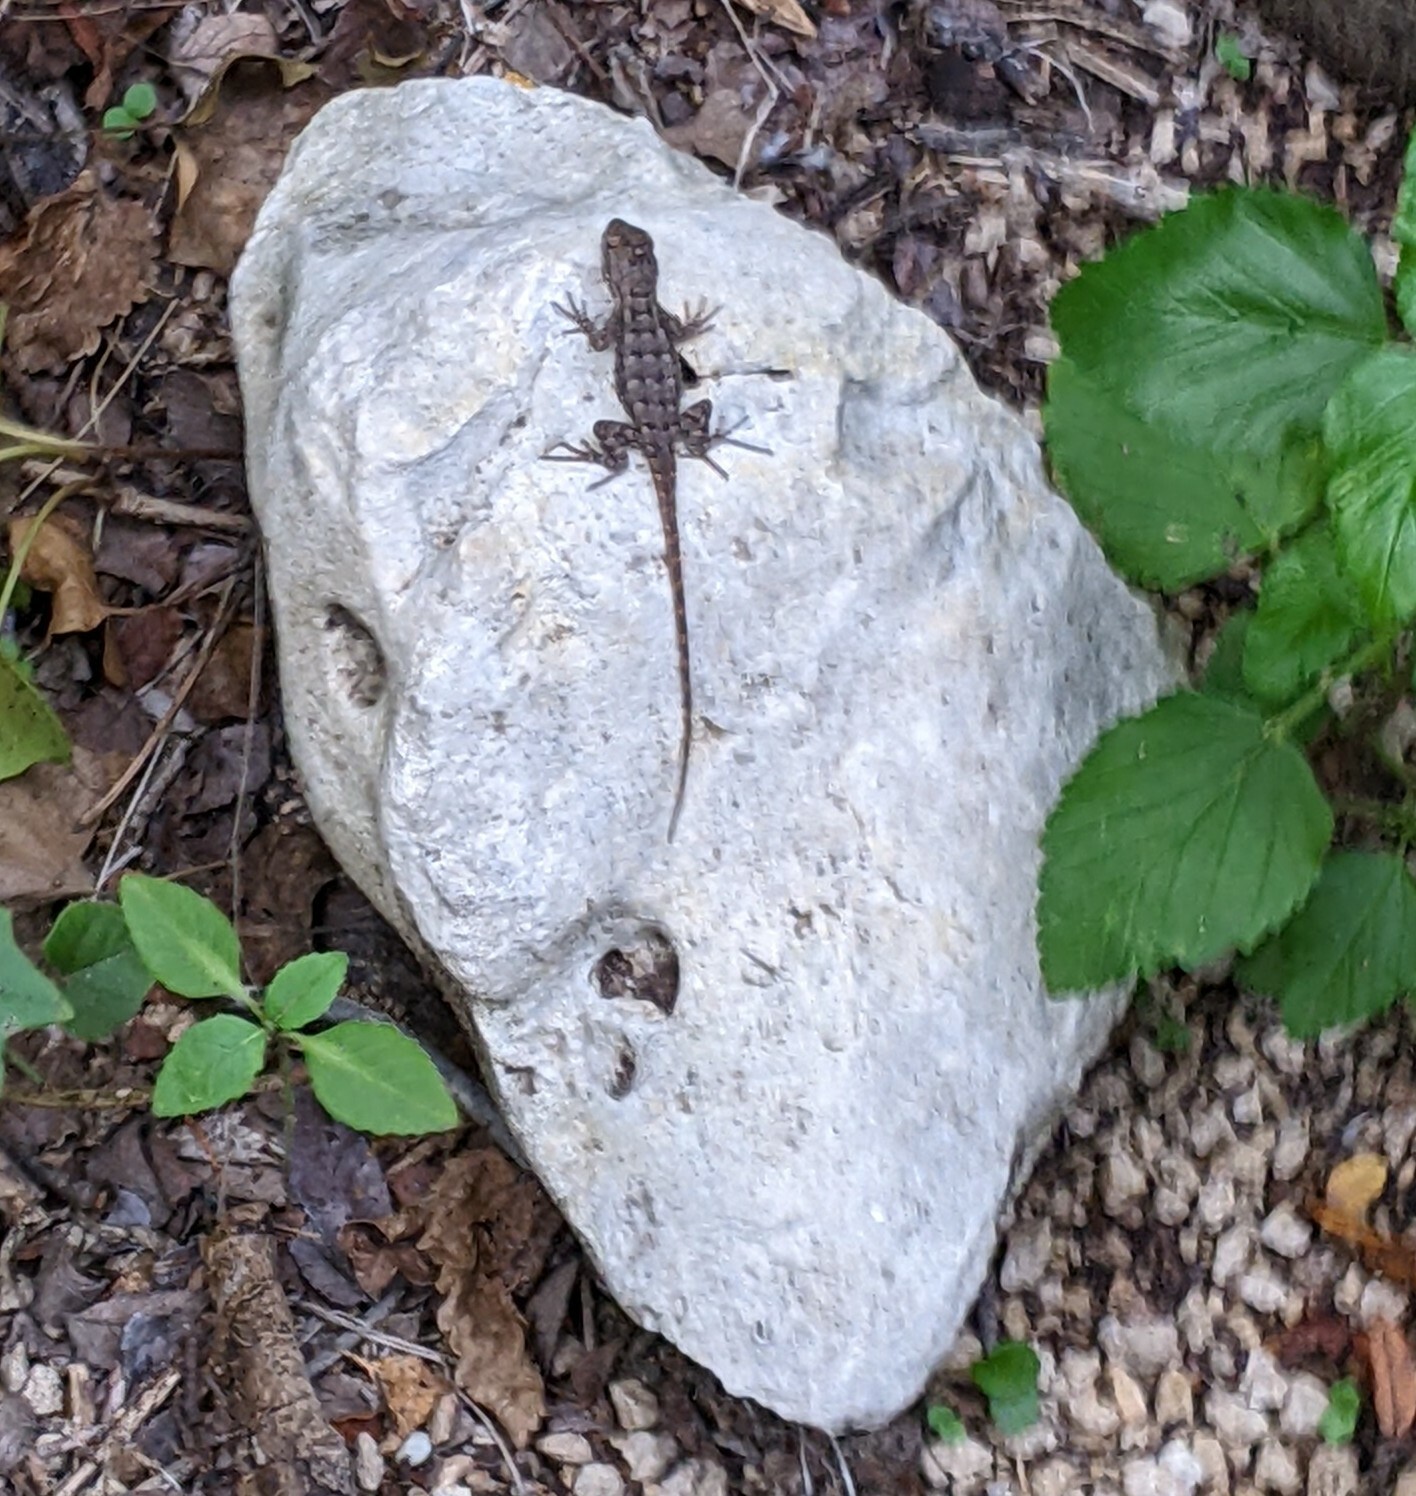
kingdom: Animalia
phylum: Chordata
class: Squamata
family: Phrynosomatidae
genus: Sceloporus
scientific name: Sceloporus olivaceus
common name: Texas spiny lizard
